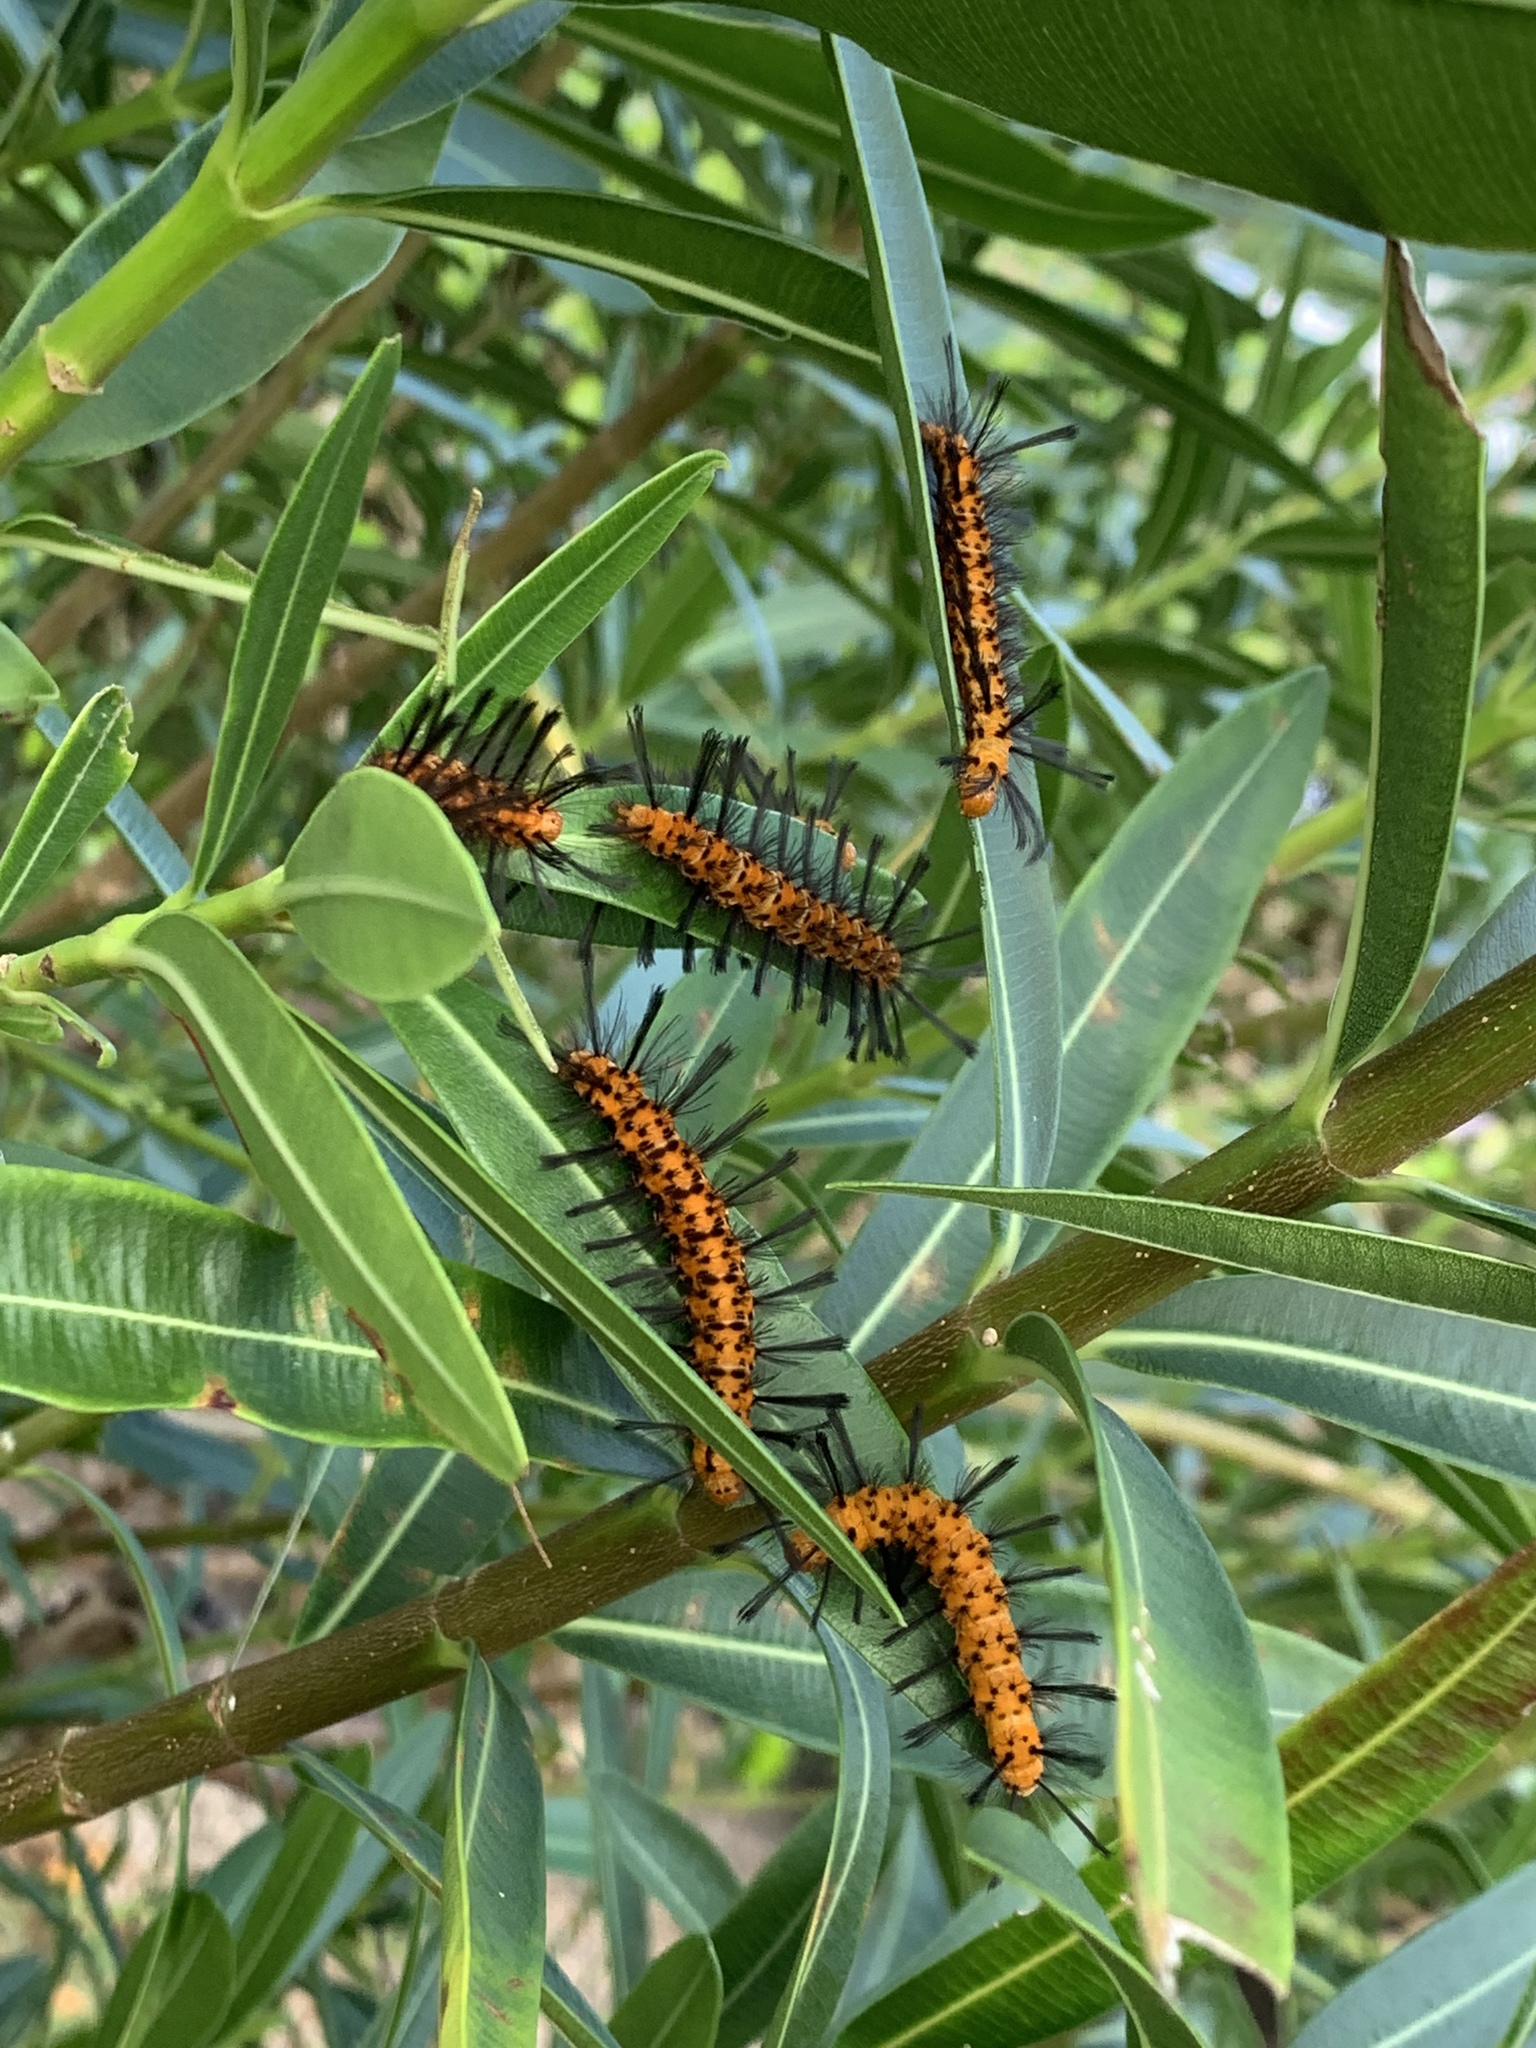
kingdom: Animalia
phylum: Arthropoda
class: Insecta
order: Lepidoptera
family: Erebidae
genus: Syntomeida
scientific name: Syntomeida epilais
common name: Polka-dot wasp moth
